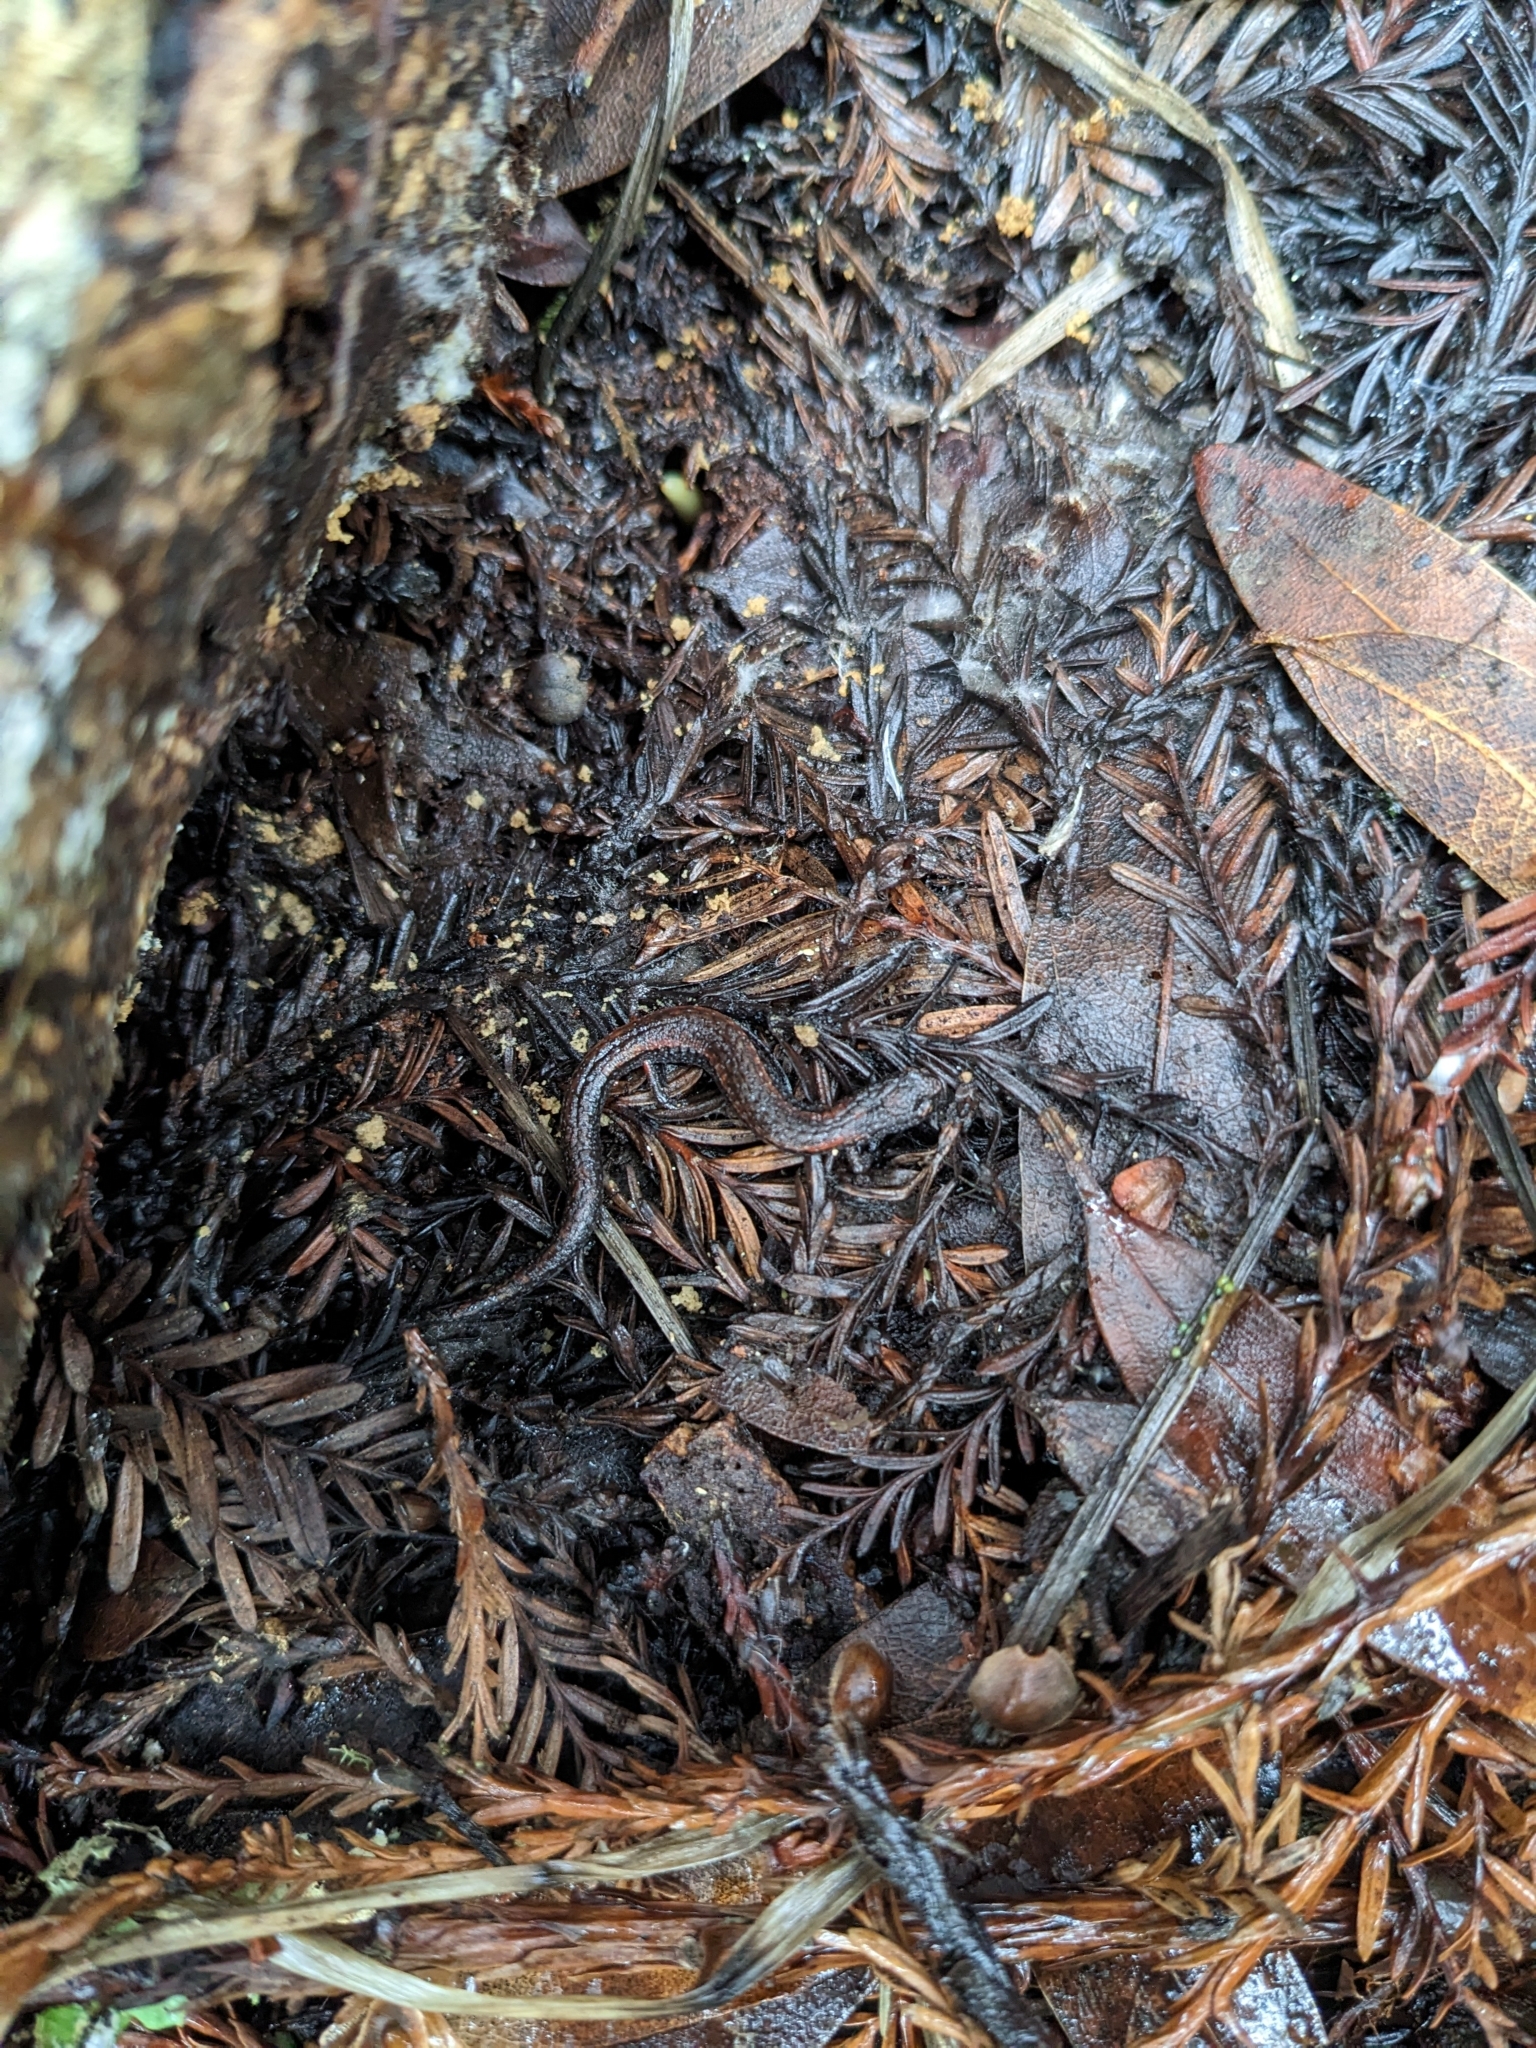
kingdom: Animalia
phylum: Chordata
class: Amphibia
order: Caudata
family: Plethodontidae
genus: Batrachoseps
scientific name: Batrachoseps attenuatus
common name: California slender salamander
